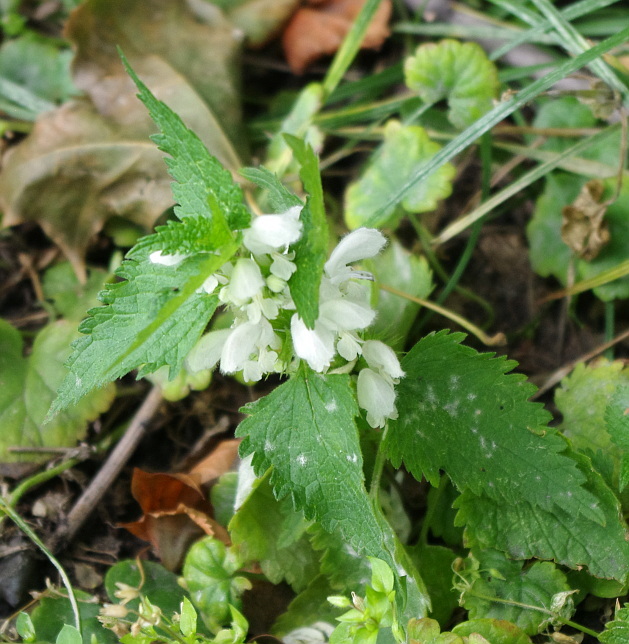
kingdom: Plantae
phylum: Tracheophyta
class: Magnoliopsida
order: Lamiales
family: Lamiaceae
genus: Lamium
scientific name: Lamium album
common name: White dead-nettle
